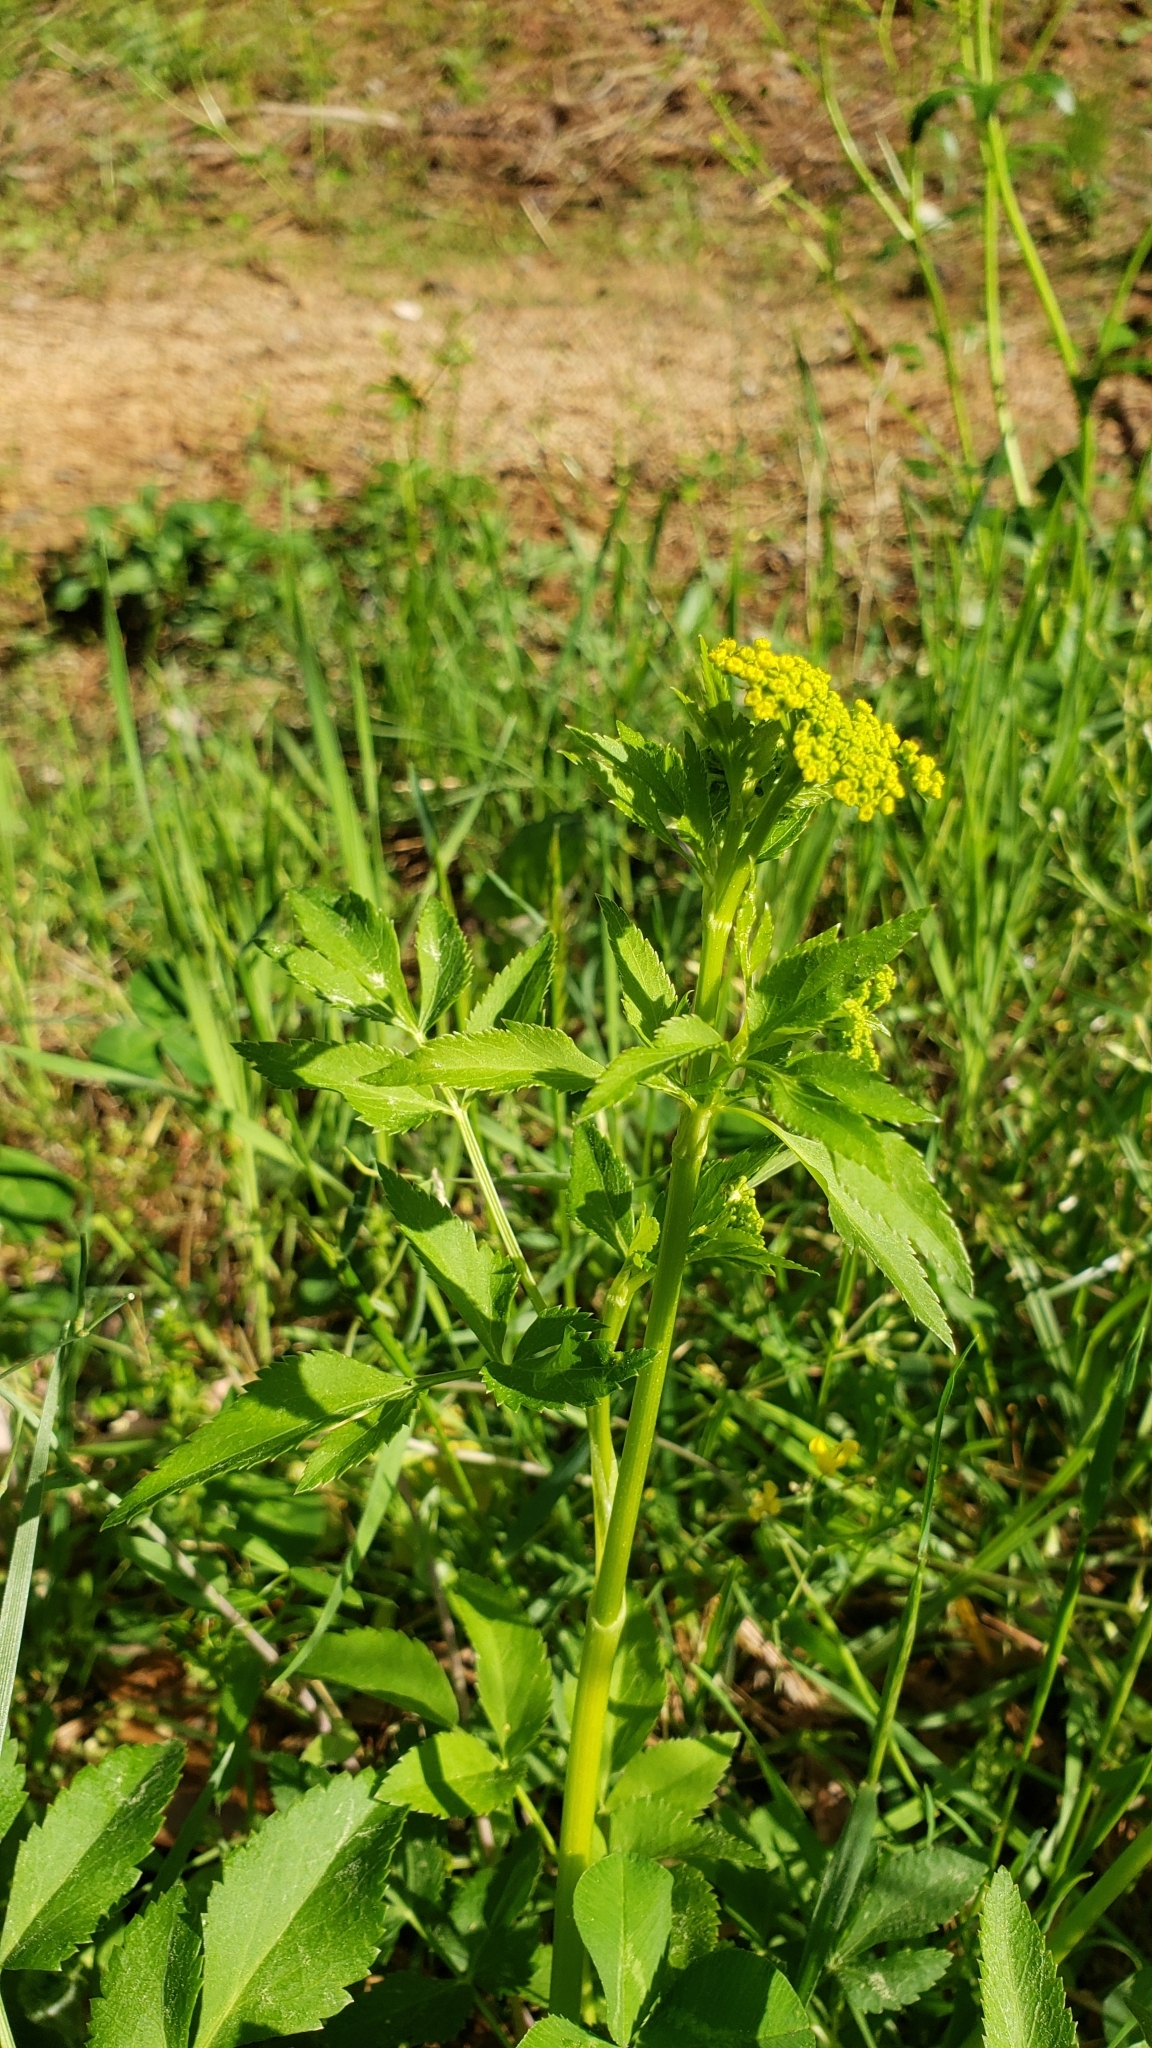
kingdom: Plantae
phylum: Tracheophyta
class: Magnoliopsida
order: Apiales
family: Apiaceae
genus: Zizia
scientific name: Zizia aurea
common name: Golden alexanders
